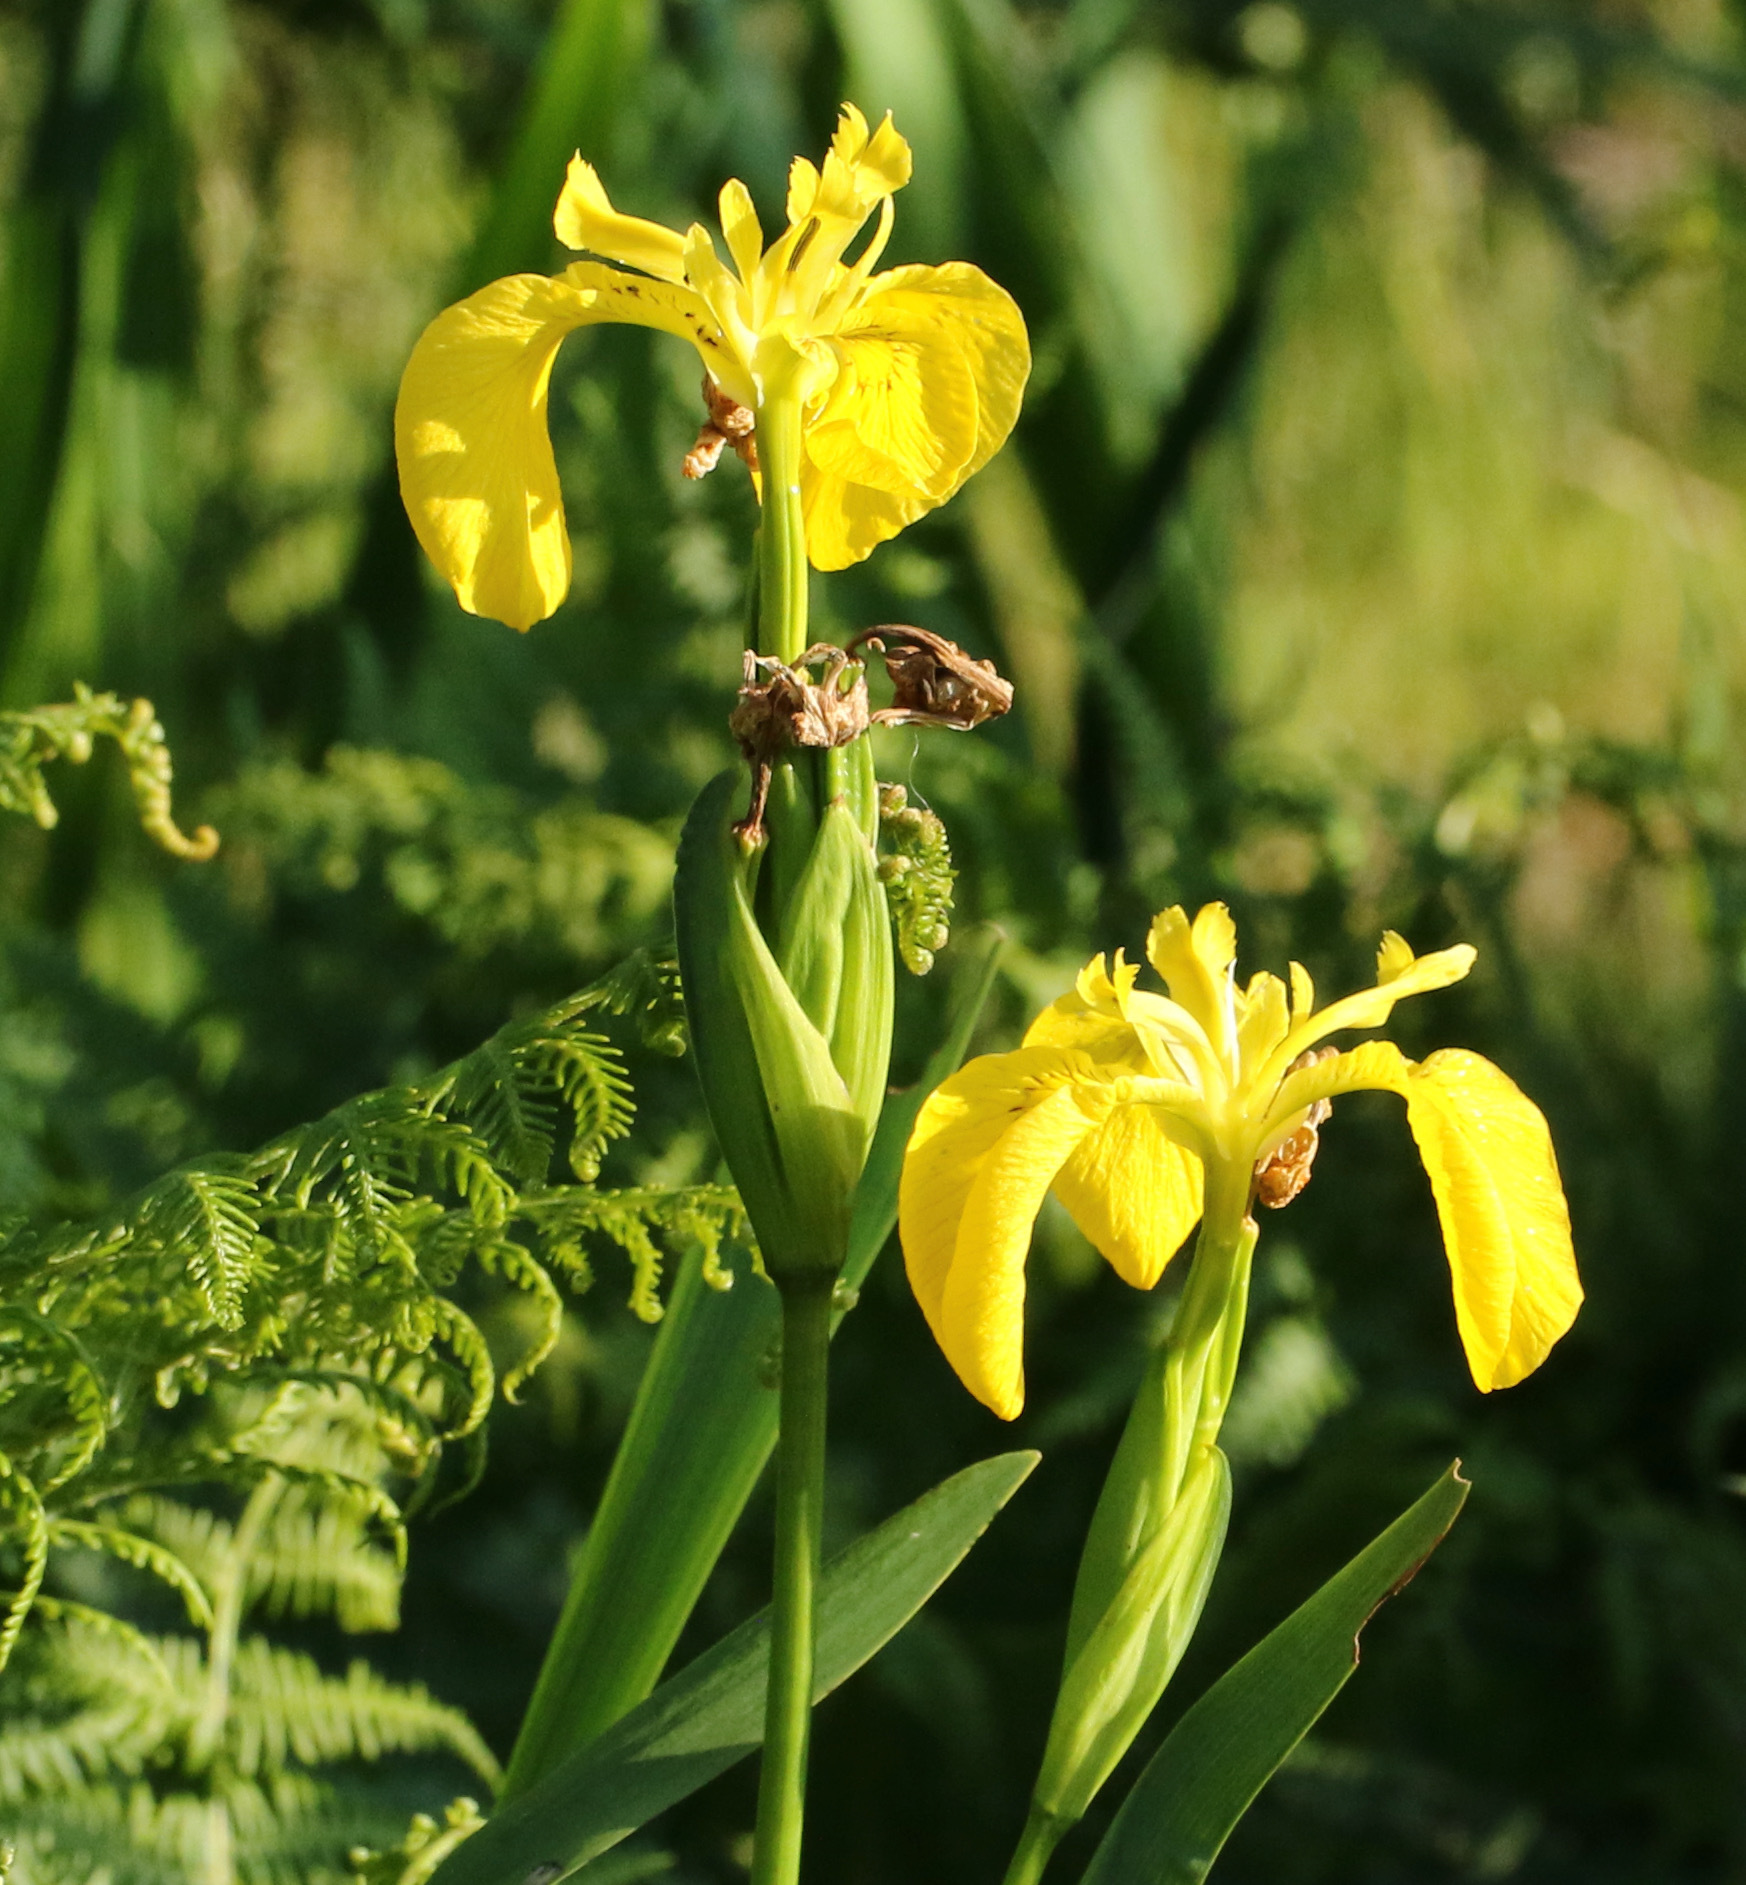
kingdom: Plantae
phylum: Tracheophyta
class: Liliopsida
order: Asparagales
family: Iridaceae
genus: Iris
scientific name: Iris pseudacorus
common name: Yellow flag
